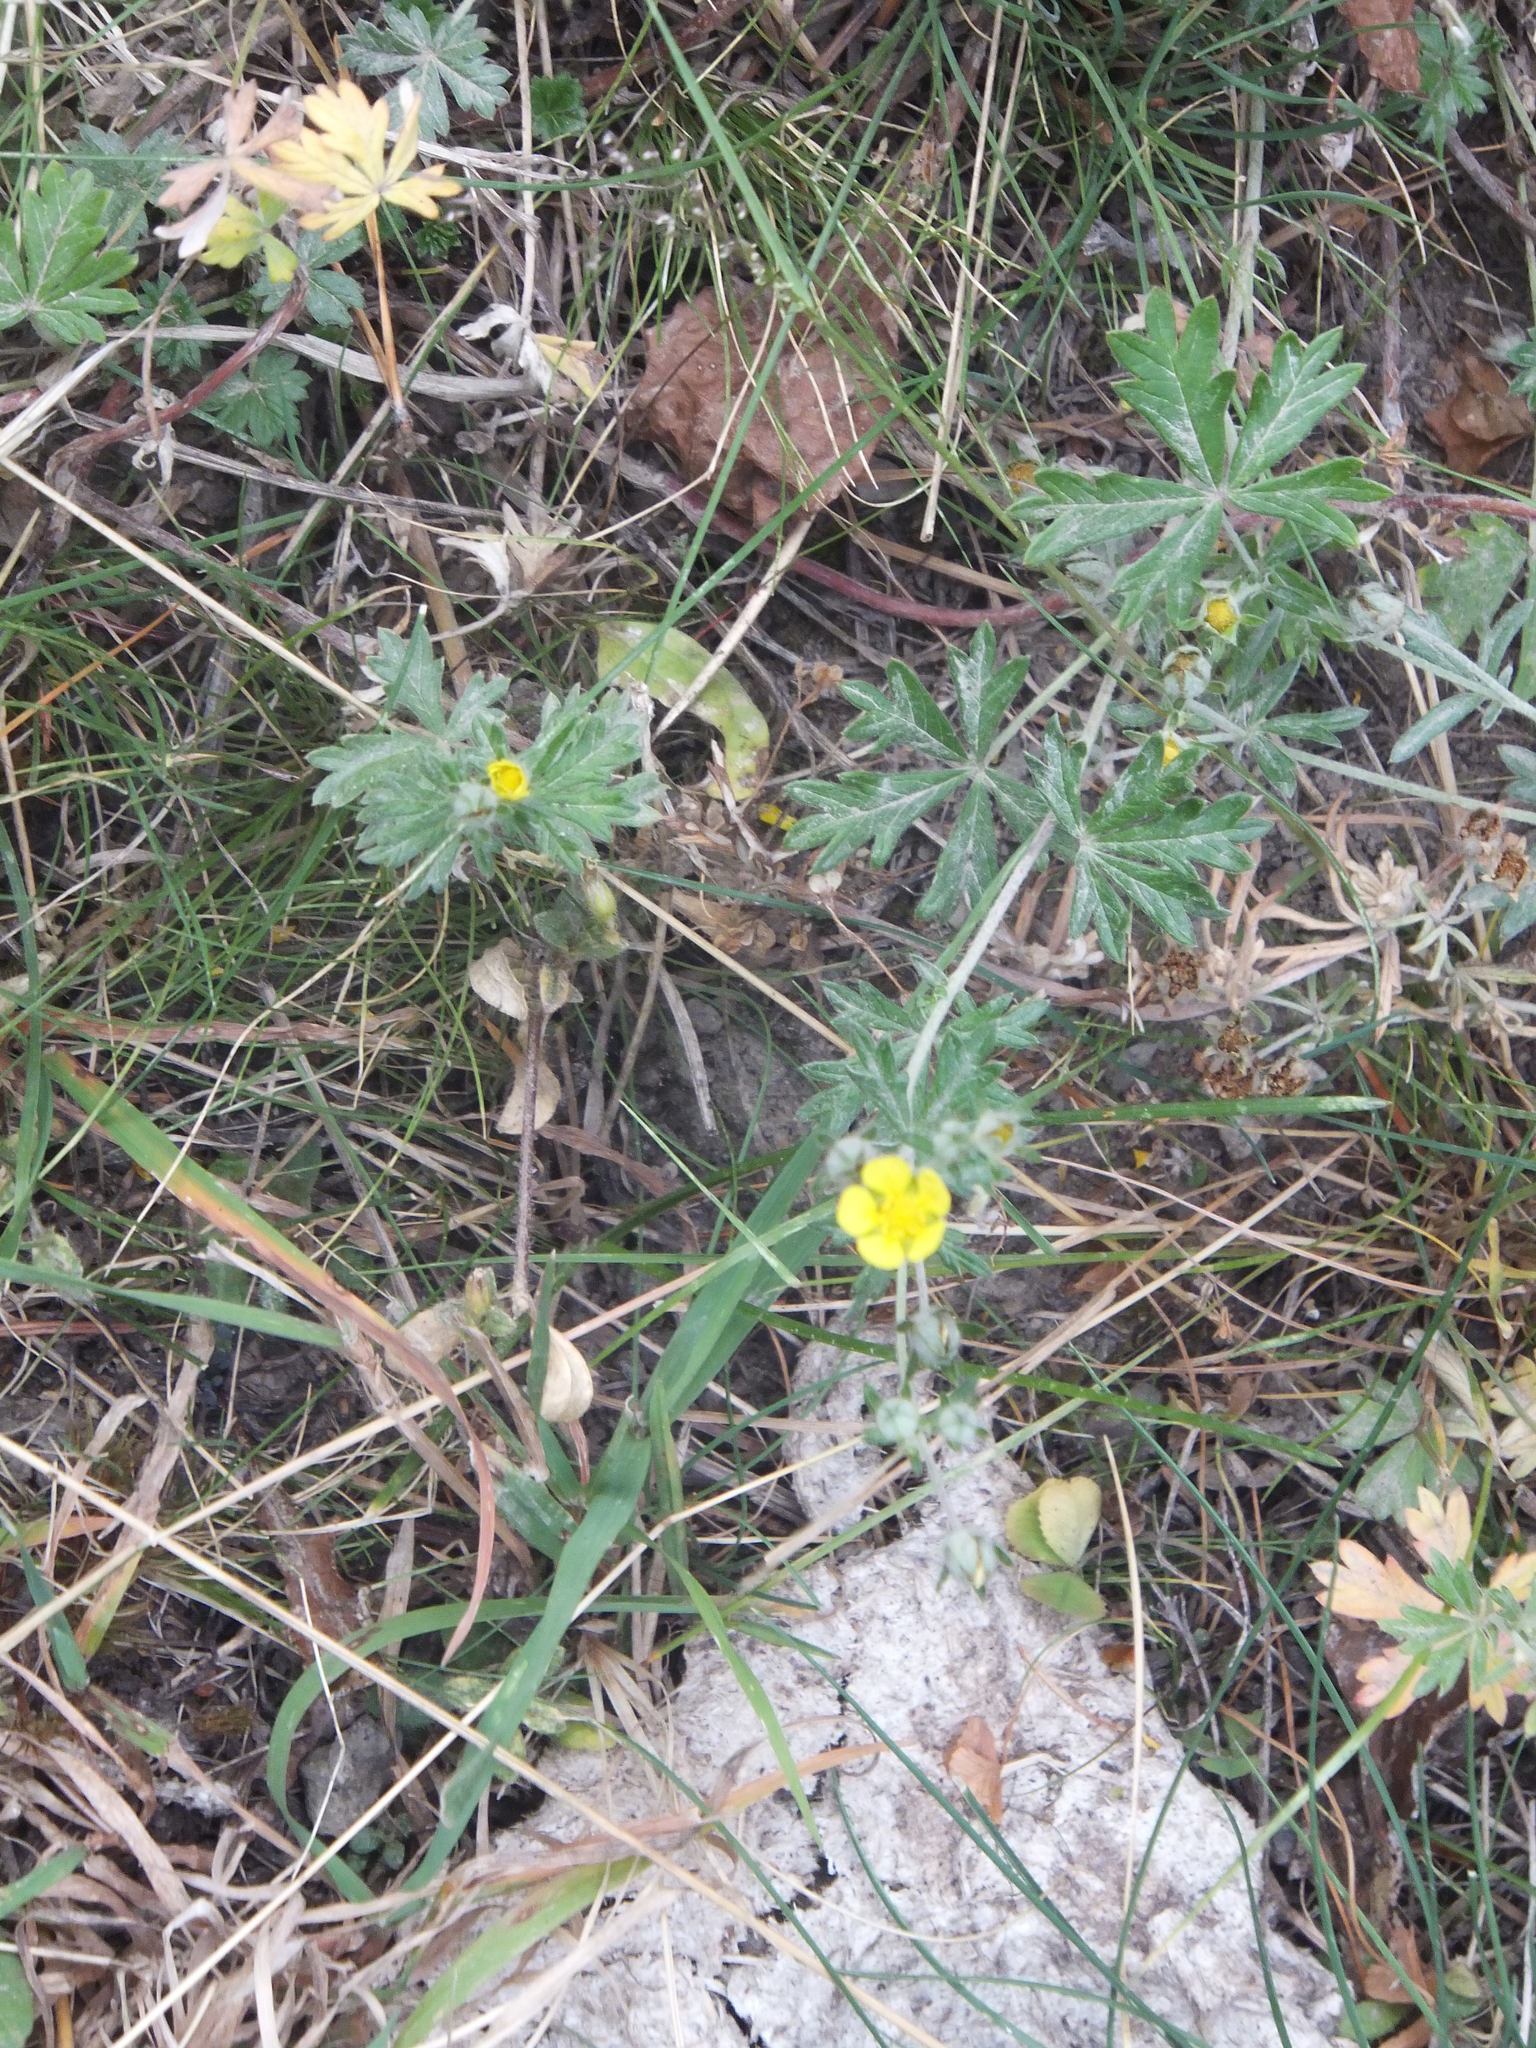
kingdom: Plantae
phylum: Tracheophyta
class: Magnoliopsida
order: Rosales
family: Rosaceae
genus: Potentilla
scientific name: Potentilla argentea
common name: Hoary cinquefoil
